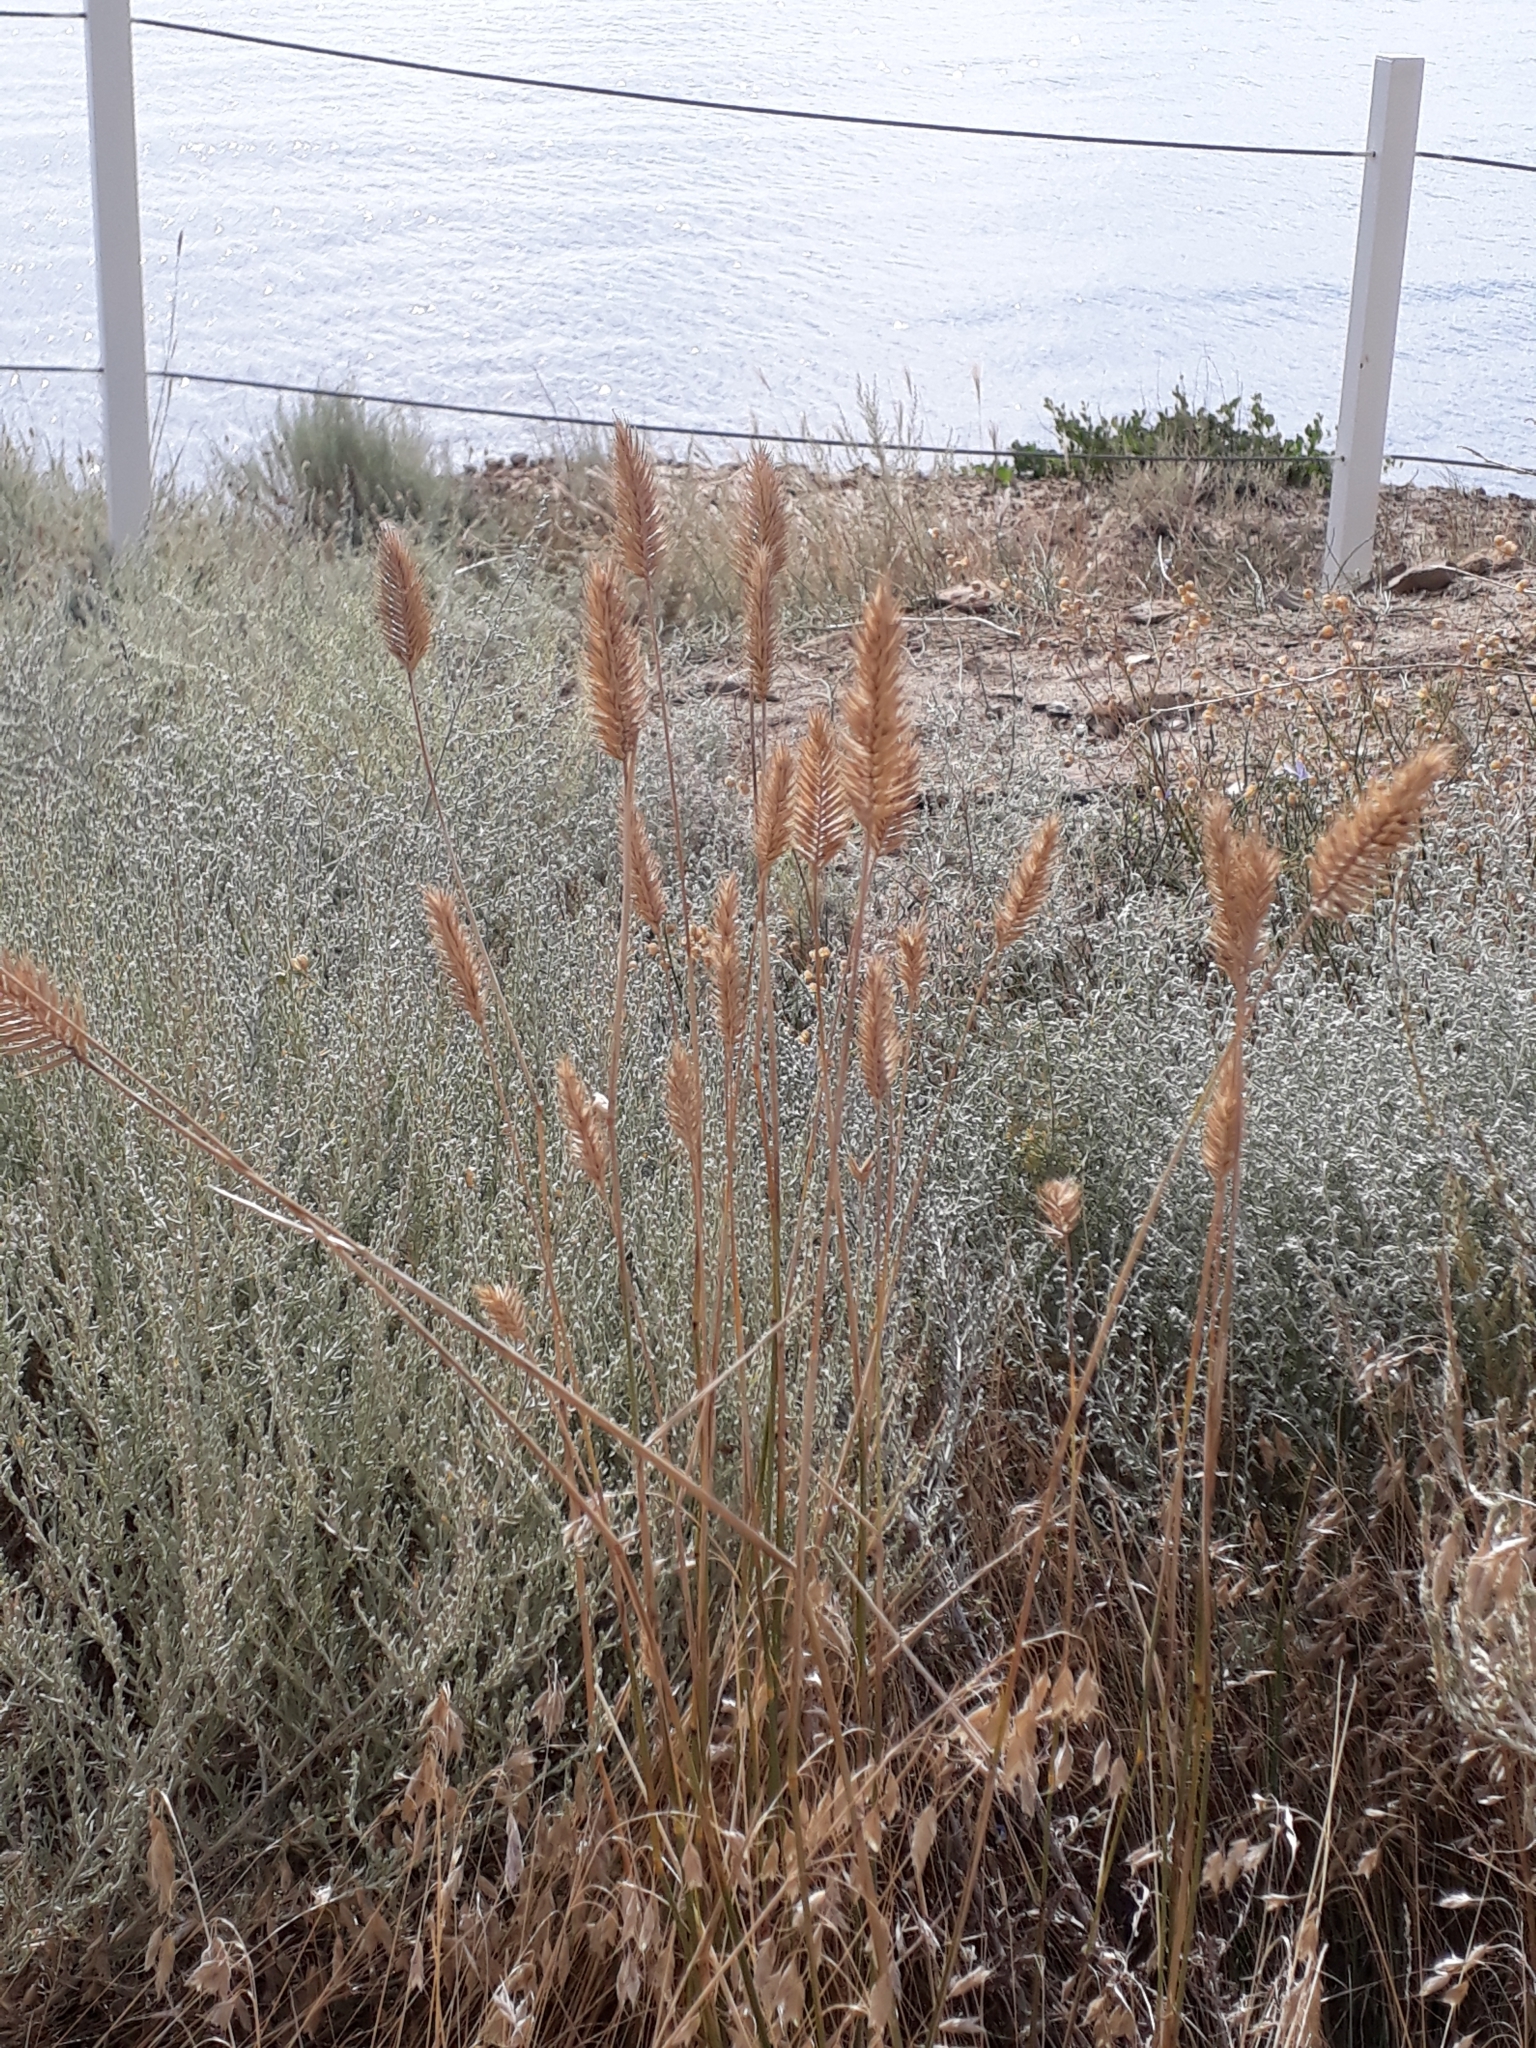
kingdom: Plantae
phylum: Tracheophyta
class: Liliopsida
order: Poales
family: Poaceae
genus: Agropyron
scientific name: Agropyron cristatum
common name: Crested wheatgrass
